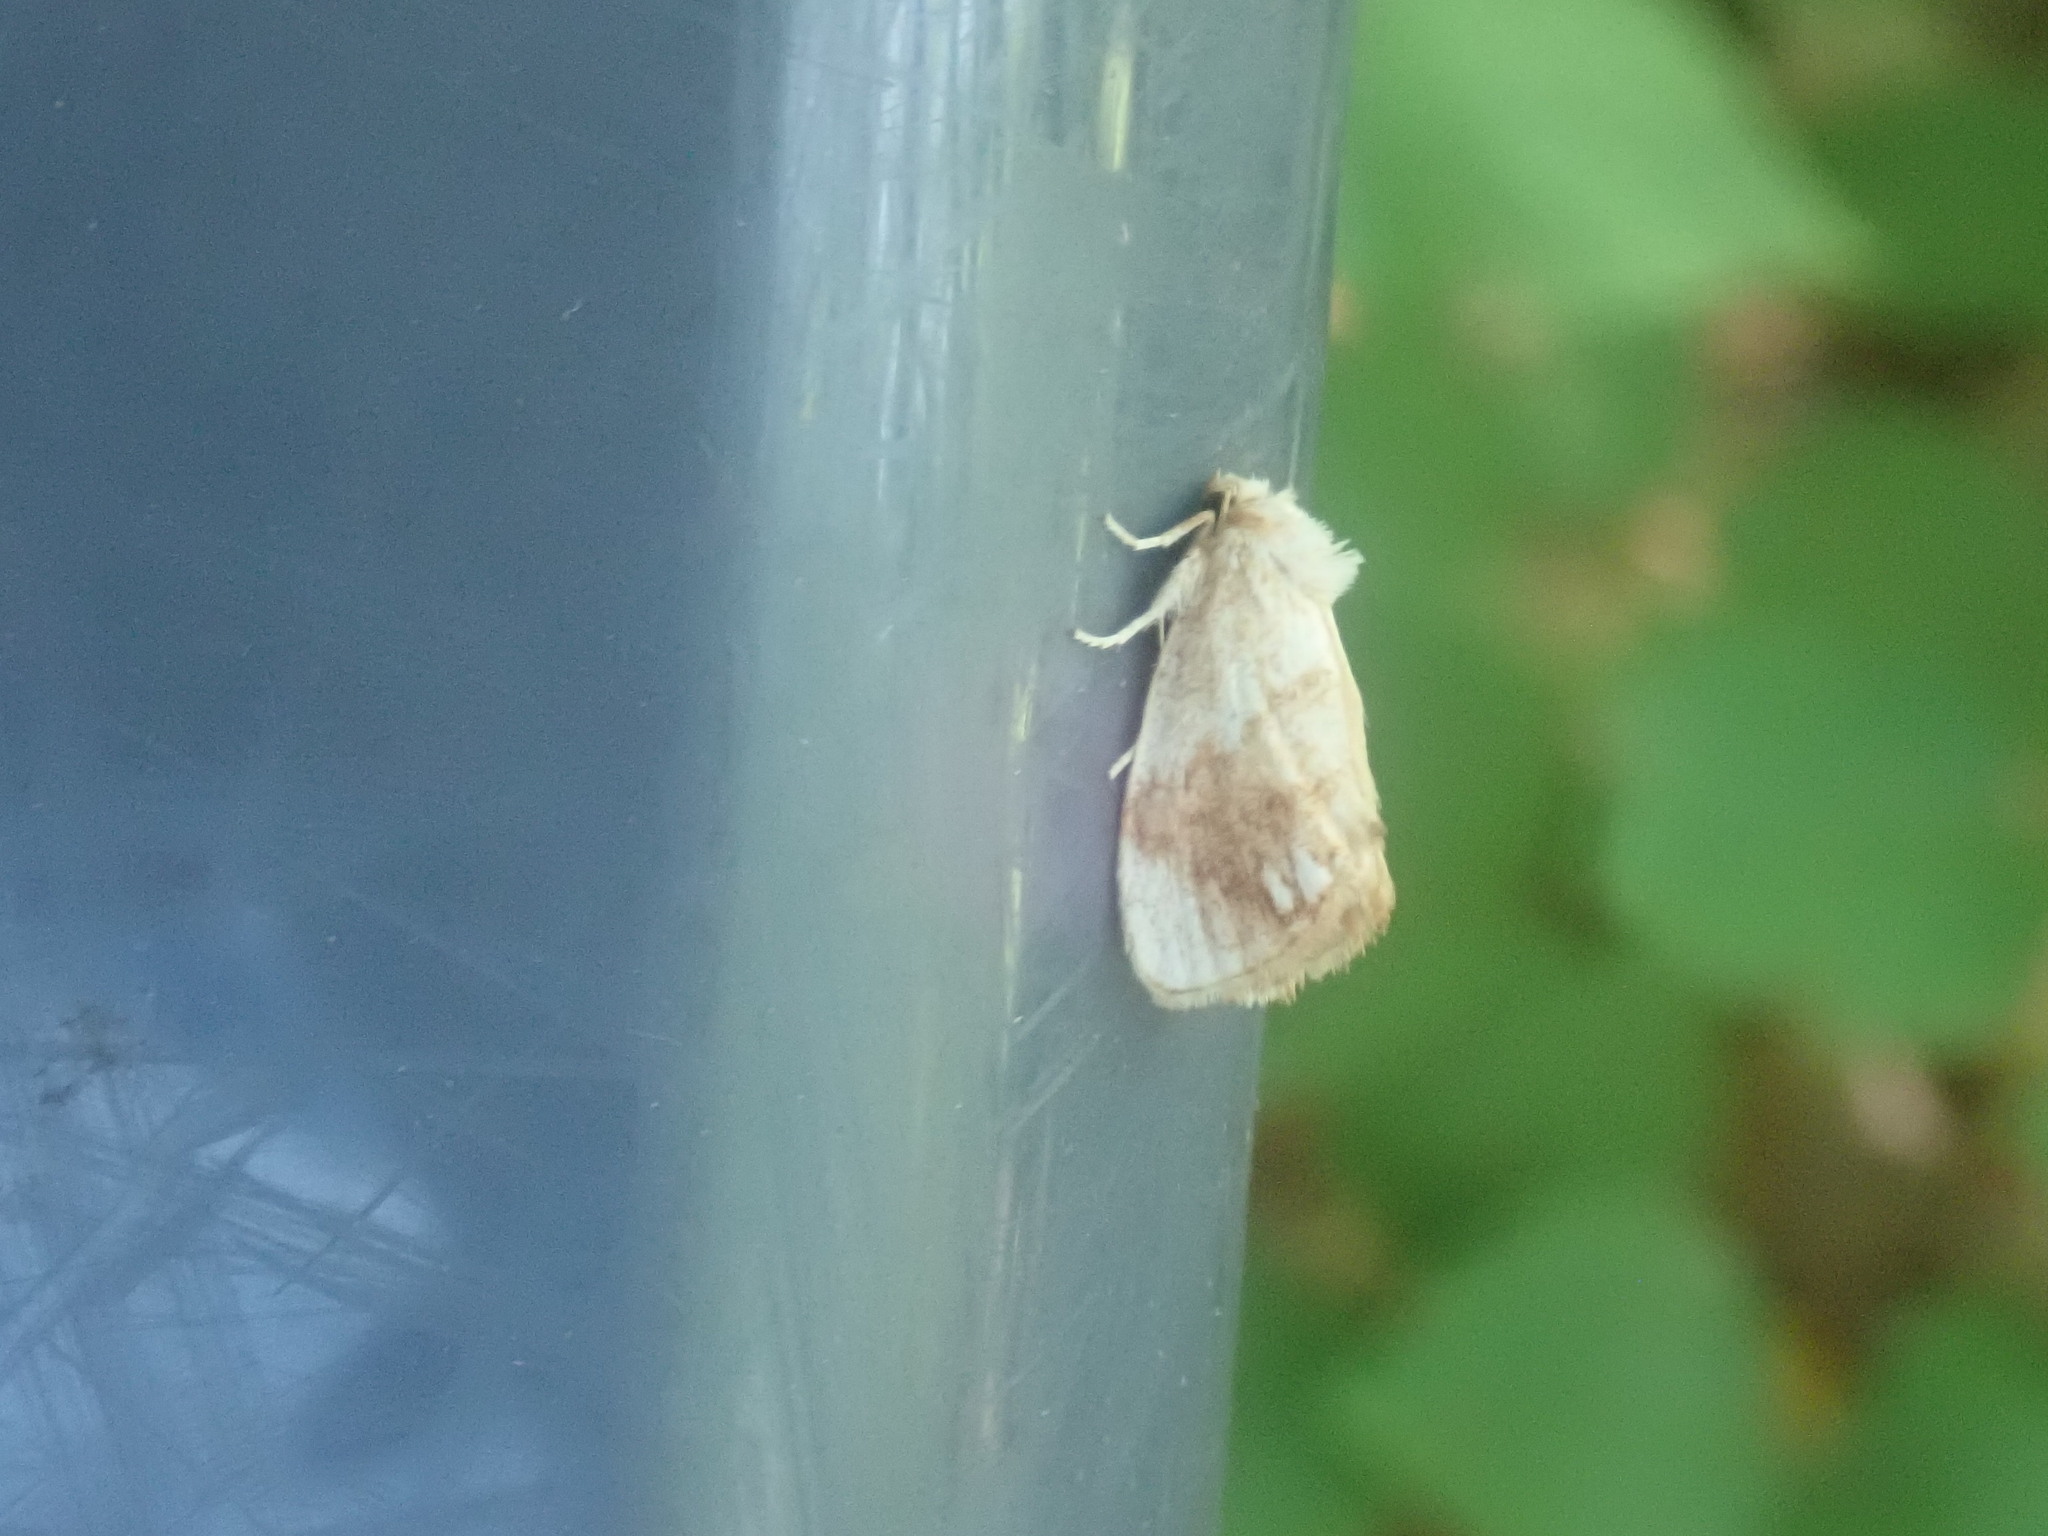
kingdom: Animalia
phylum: Arthropoda
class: Insecta
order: Lepidoptera
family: Limacodidae
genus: Packardia
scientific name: Packardia geminata
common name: Jeweled tailed slug moth
